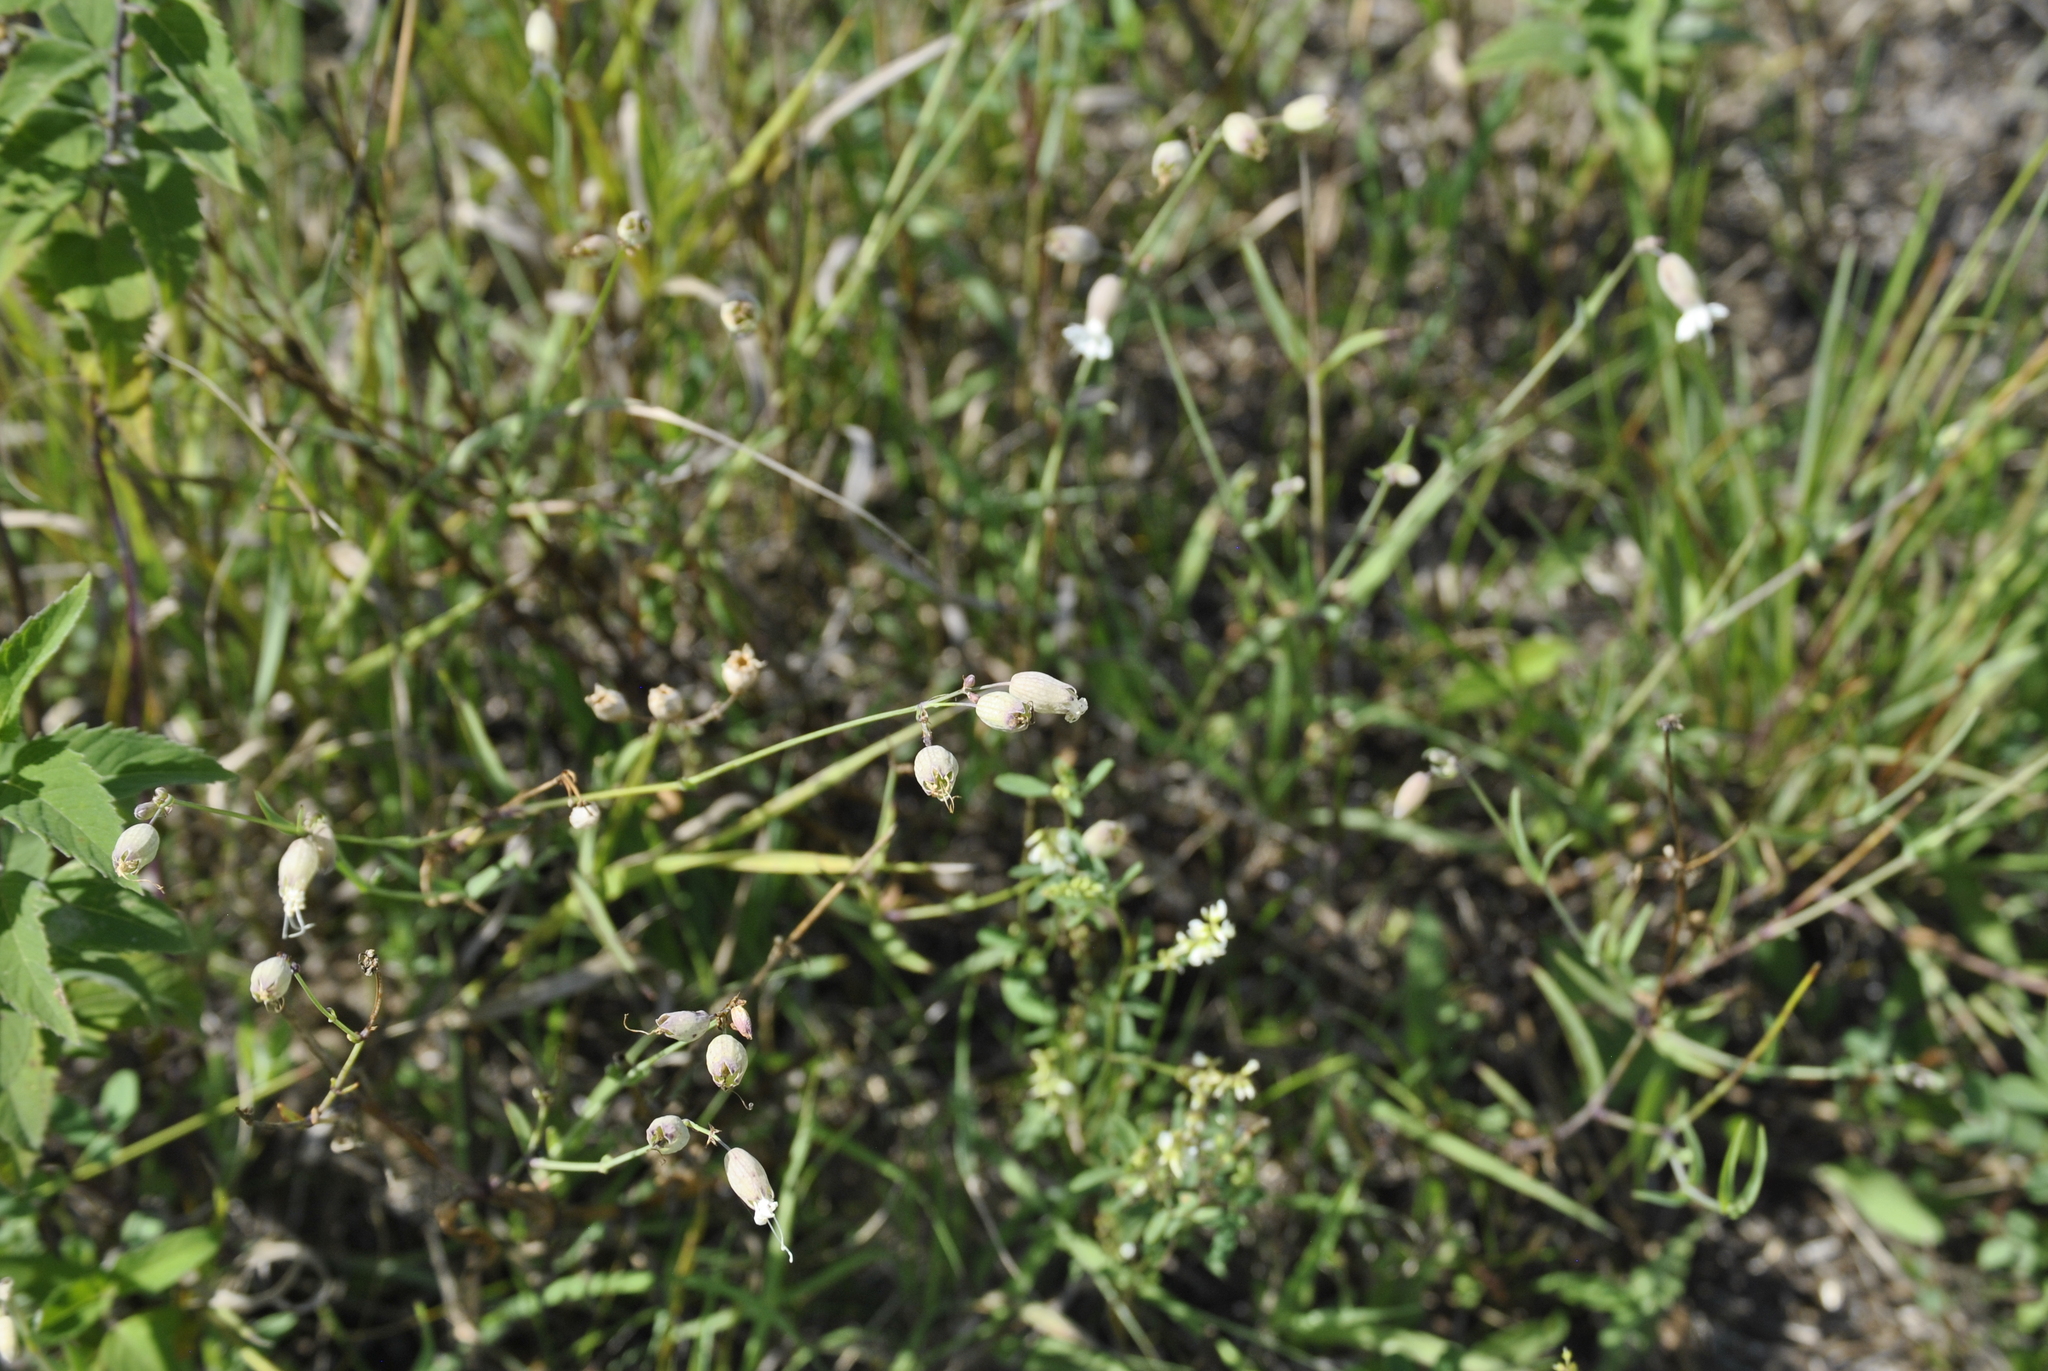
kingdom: Plantae
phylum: Tracheophyta
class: Magnoliopsida
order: Caryophyllales
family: Caryophyllaceae
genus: Silene
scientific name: Silene vulgaris
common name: Bladder campion
